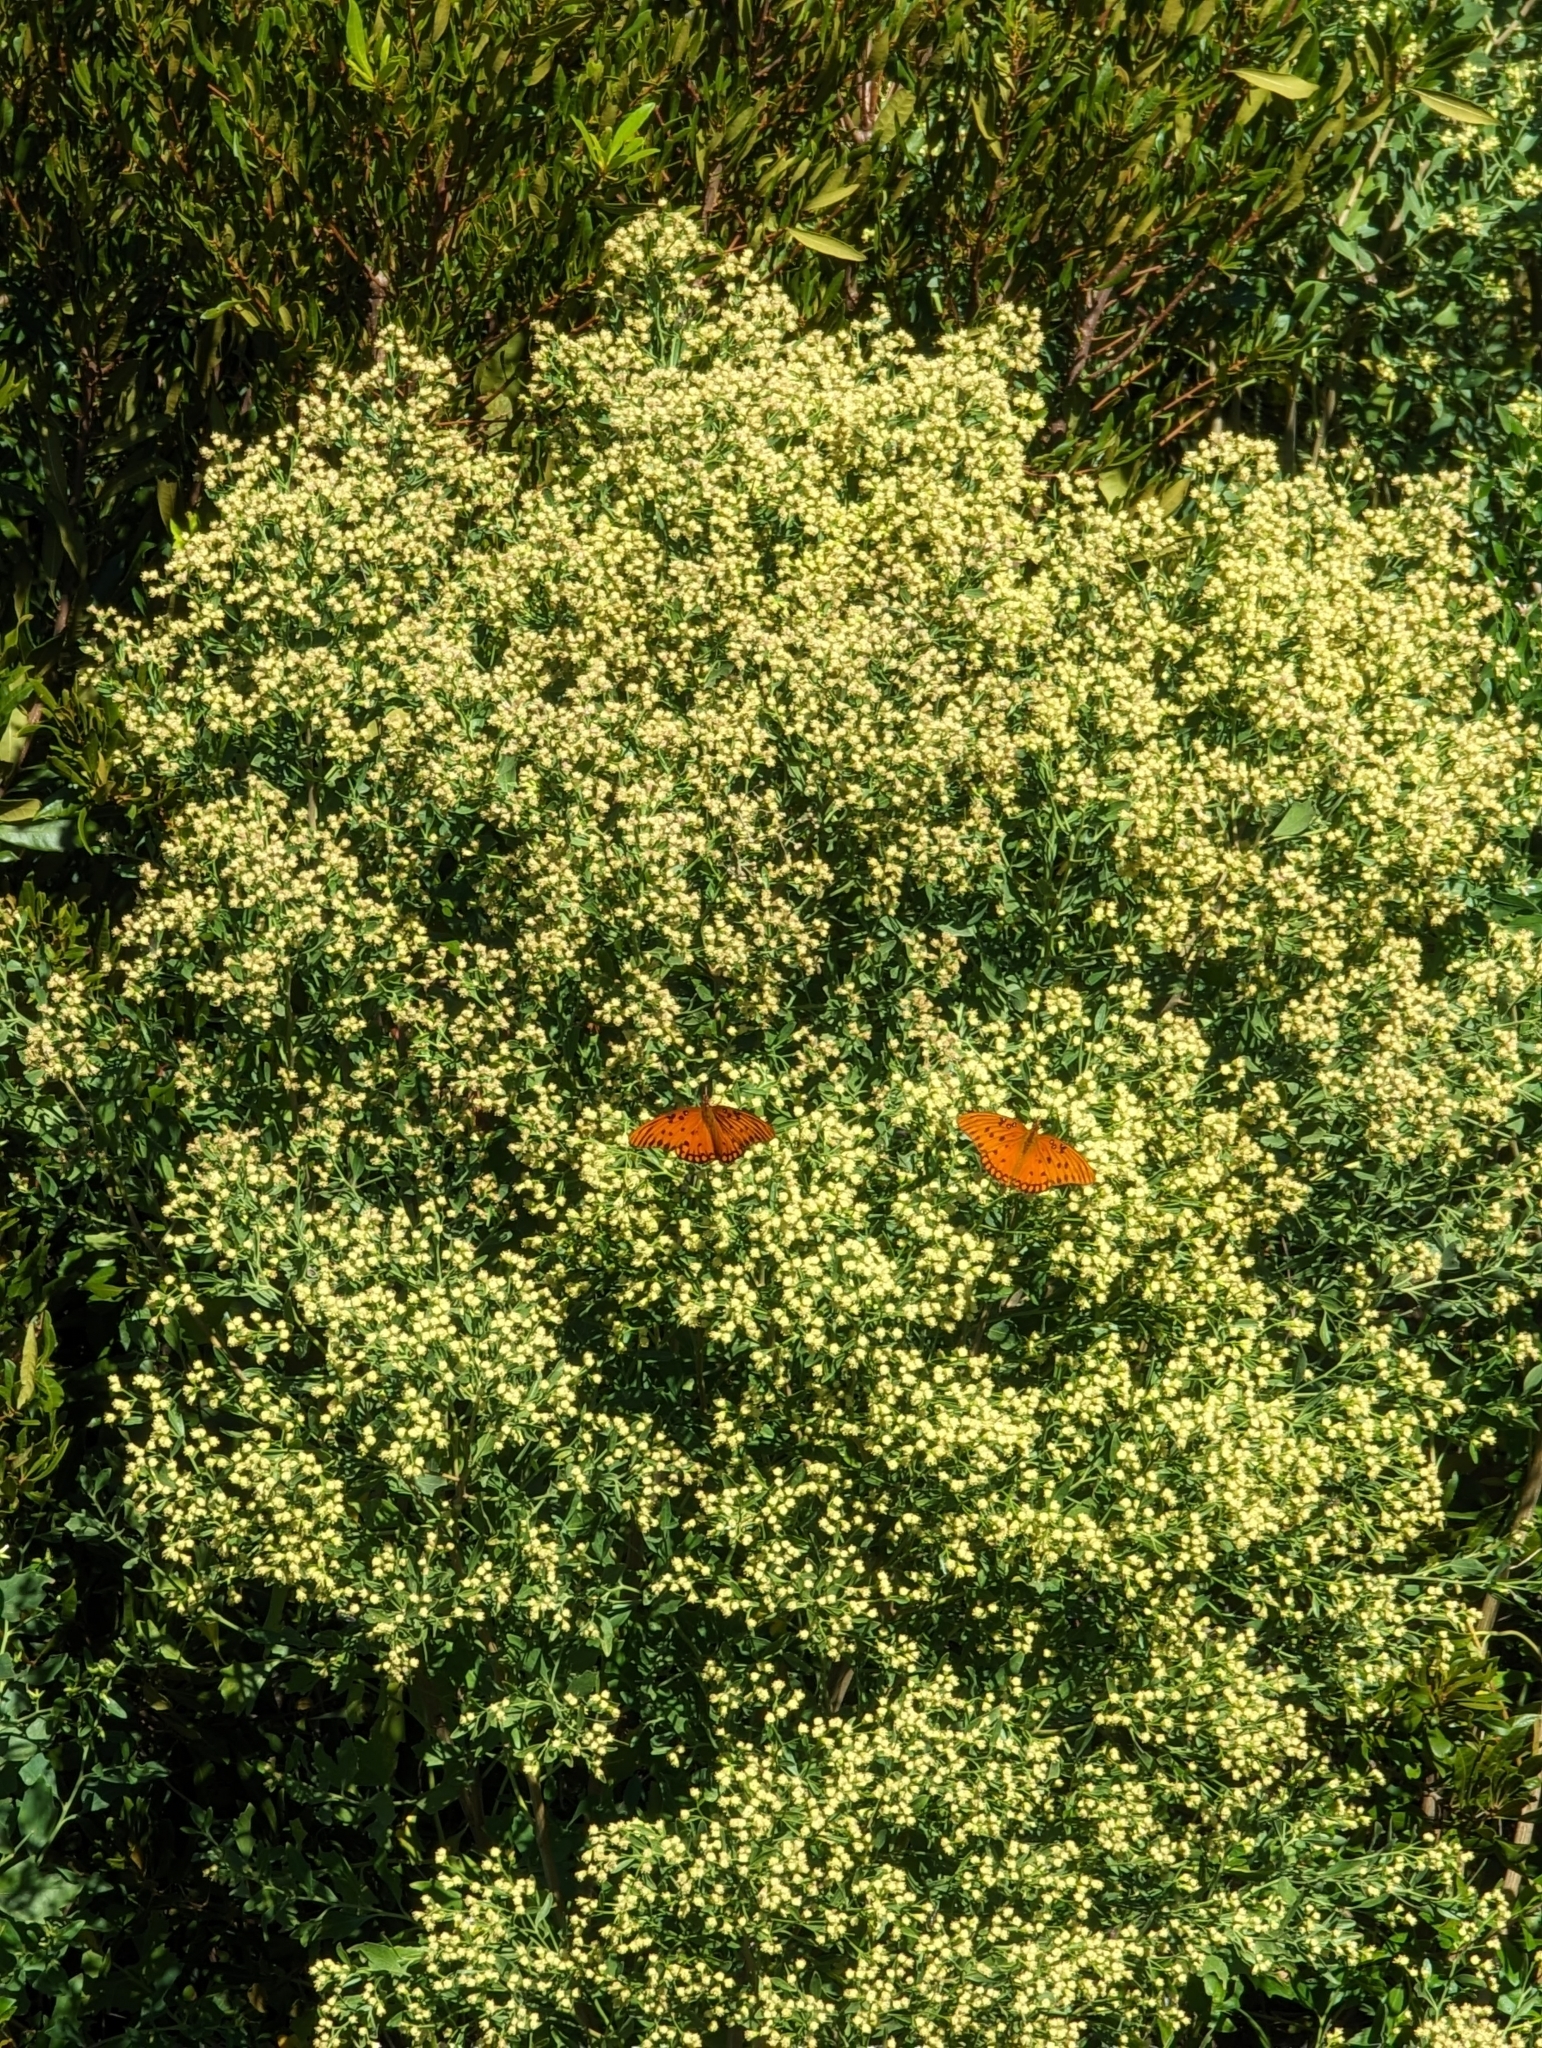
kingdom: Plantae
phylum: Tracheophyta
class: Magnoliopsida
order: Asterales
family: Asteraceae
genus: Baccharis
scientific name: Baccharis halimifolia
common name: Eastern baccharis
